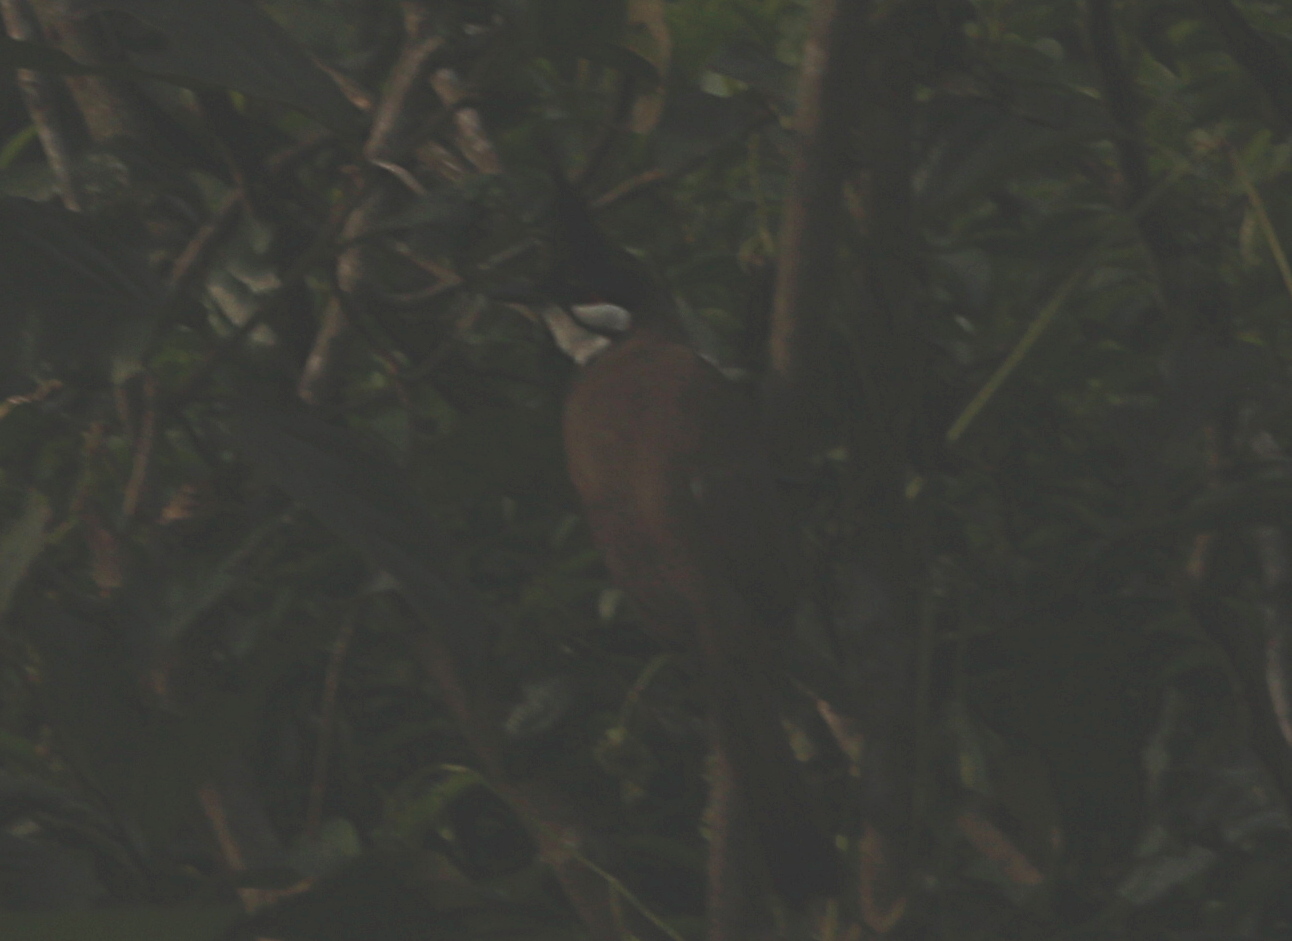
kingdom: Animalia
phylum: Chordata
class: Aves
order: Passeriformes
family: Pycnonotidae
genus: Pycnonotus
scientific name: Pycnonotus jocosus
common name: Red-whiskered bulbul
